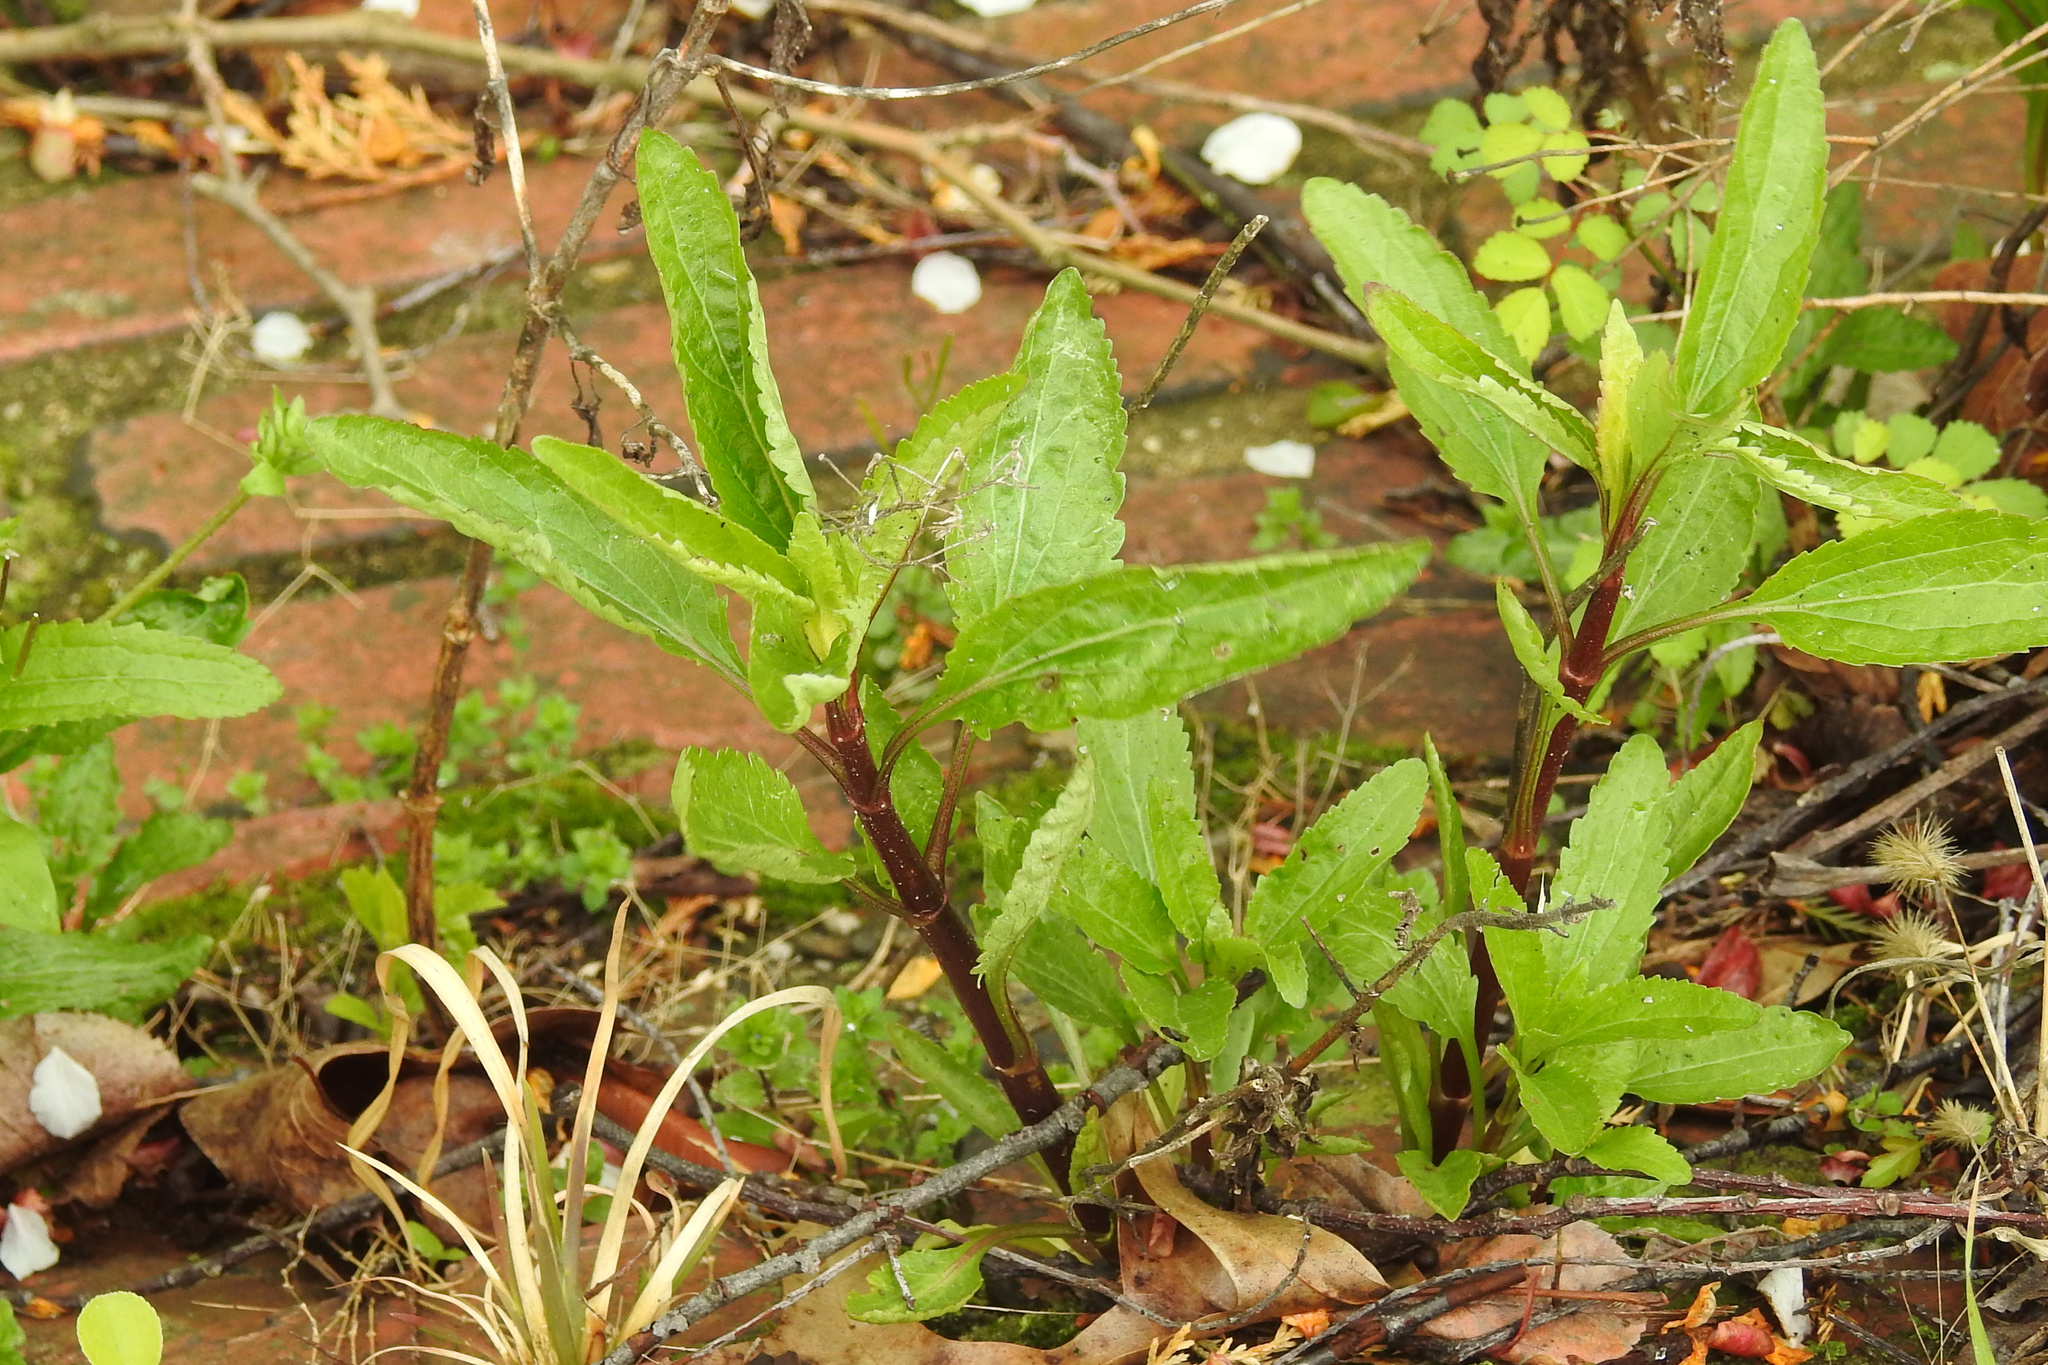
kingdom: Plantae
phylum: Tracheophyta
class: Magnoliopsida
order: Asterales
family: Asteraceae
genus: Eupatorium
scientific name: Eupatorium serotinum
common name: Late boneset
